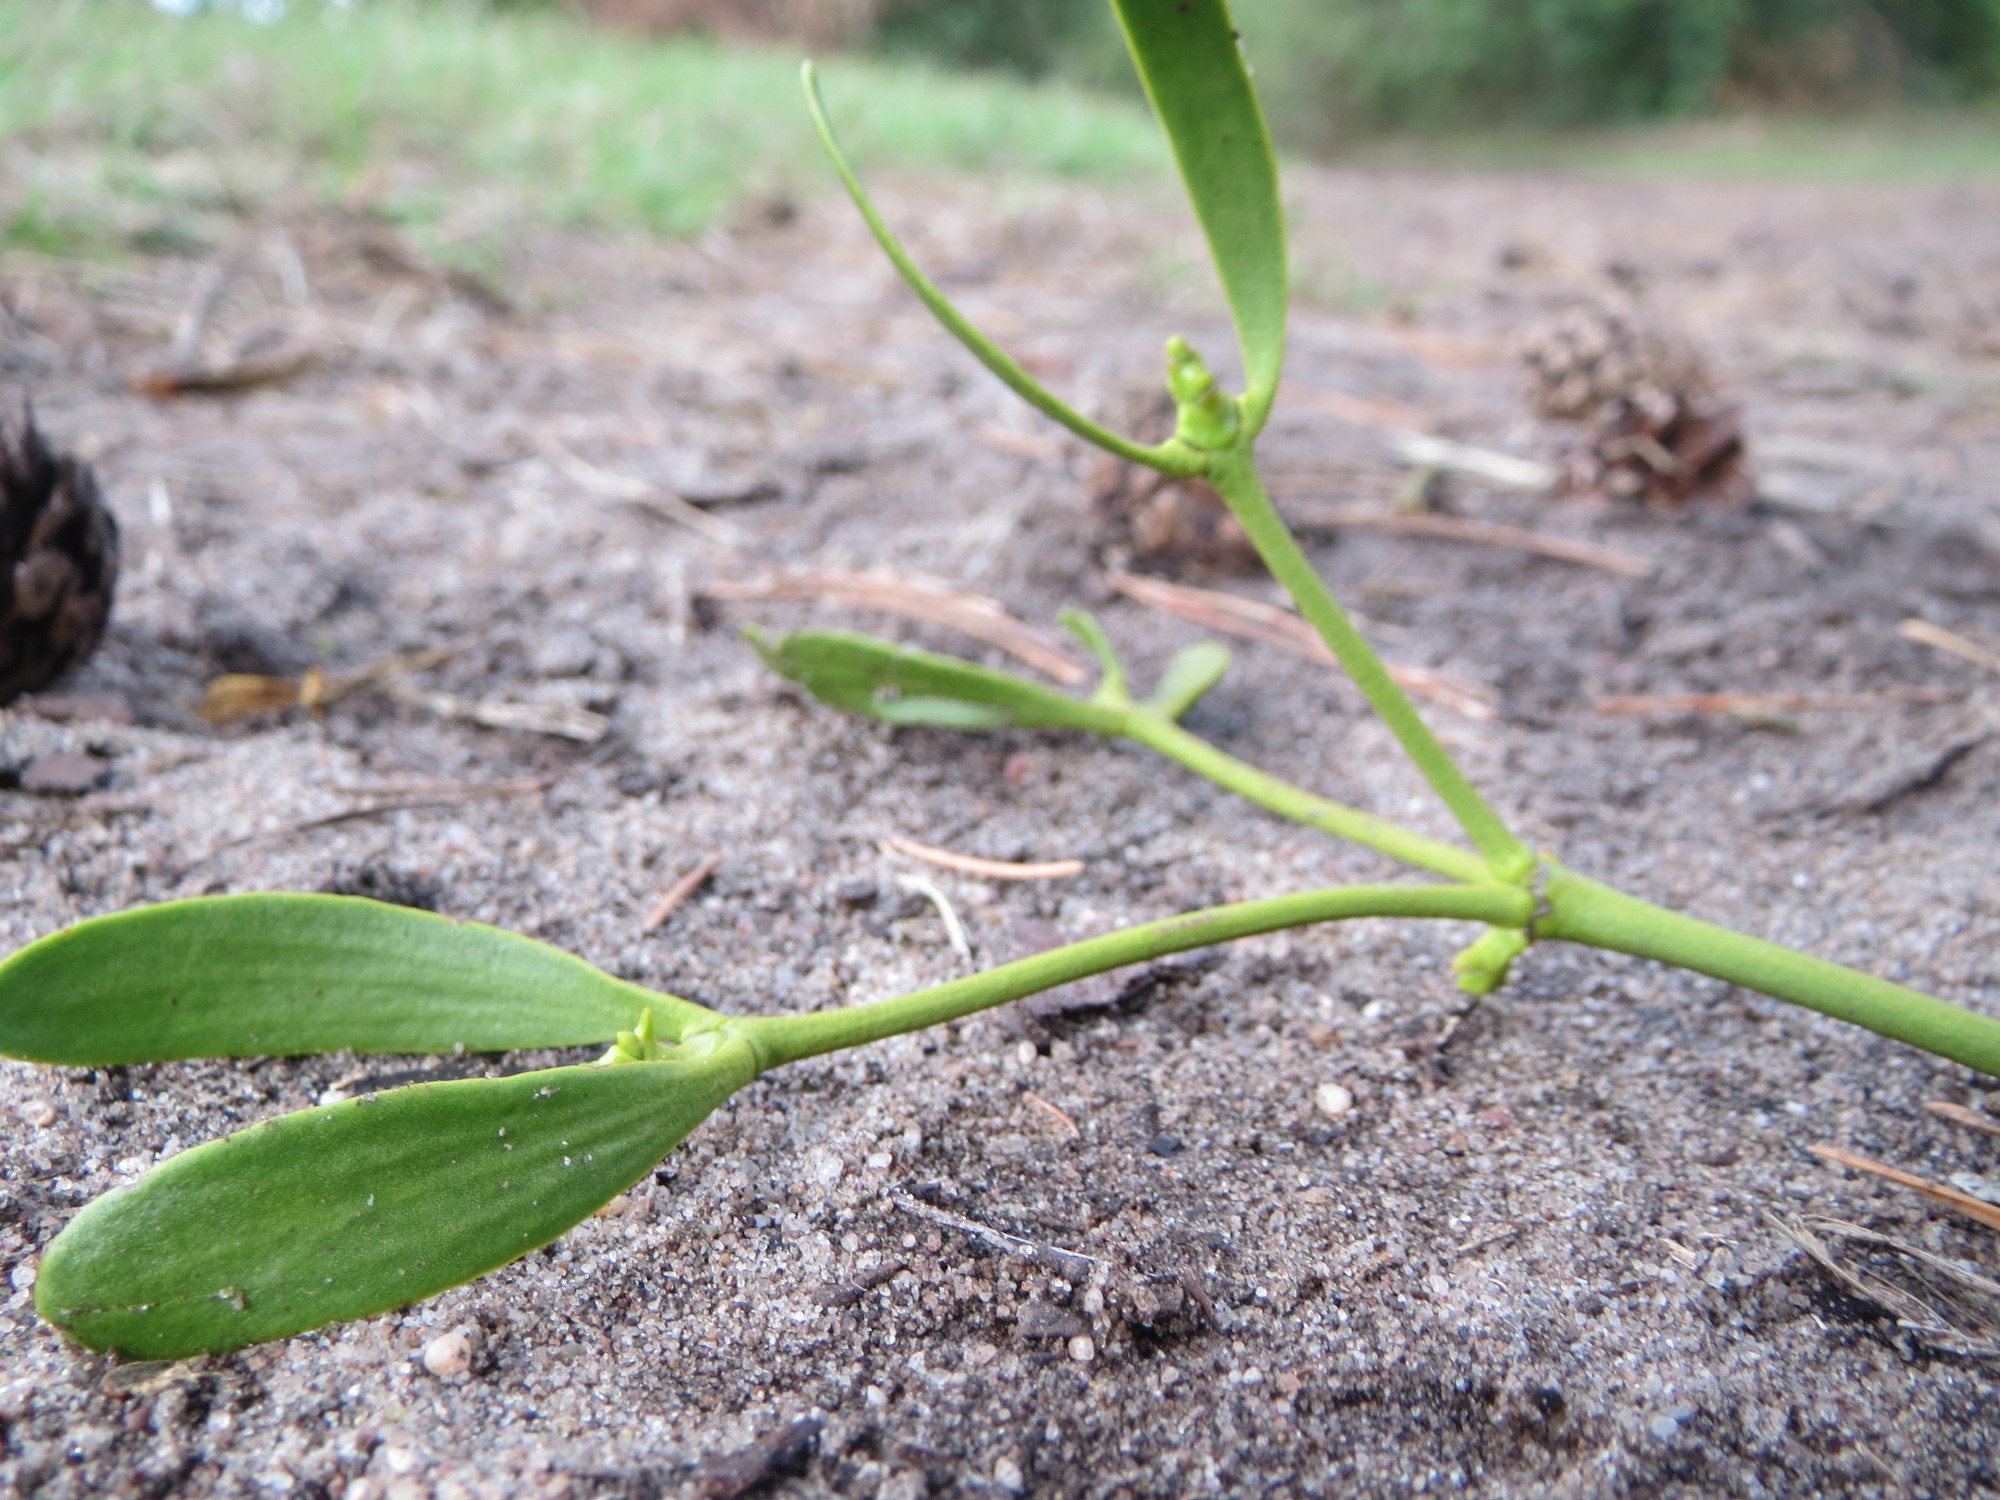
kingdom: Plantae
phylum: Tracheophyta
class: Magnoliopsida
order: Santalales
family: Viscaceae
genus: Viscum
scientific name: Viscum album
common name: Mistletoe
